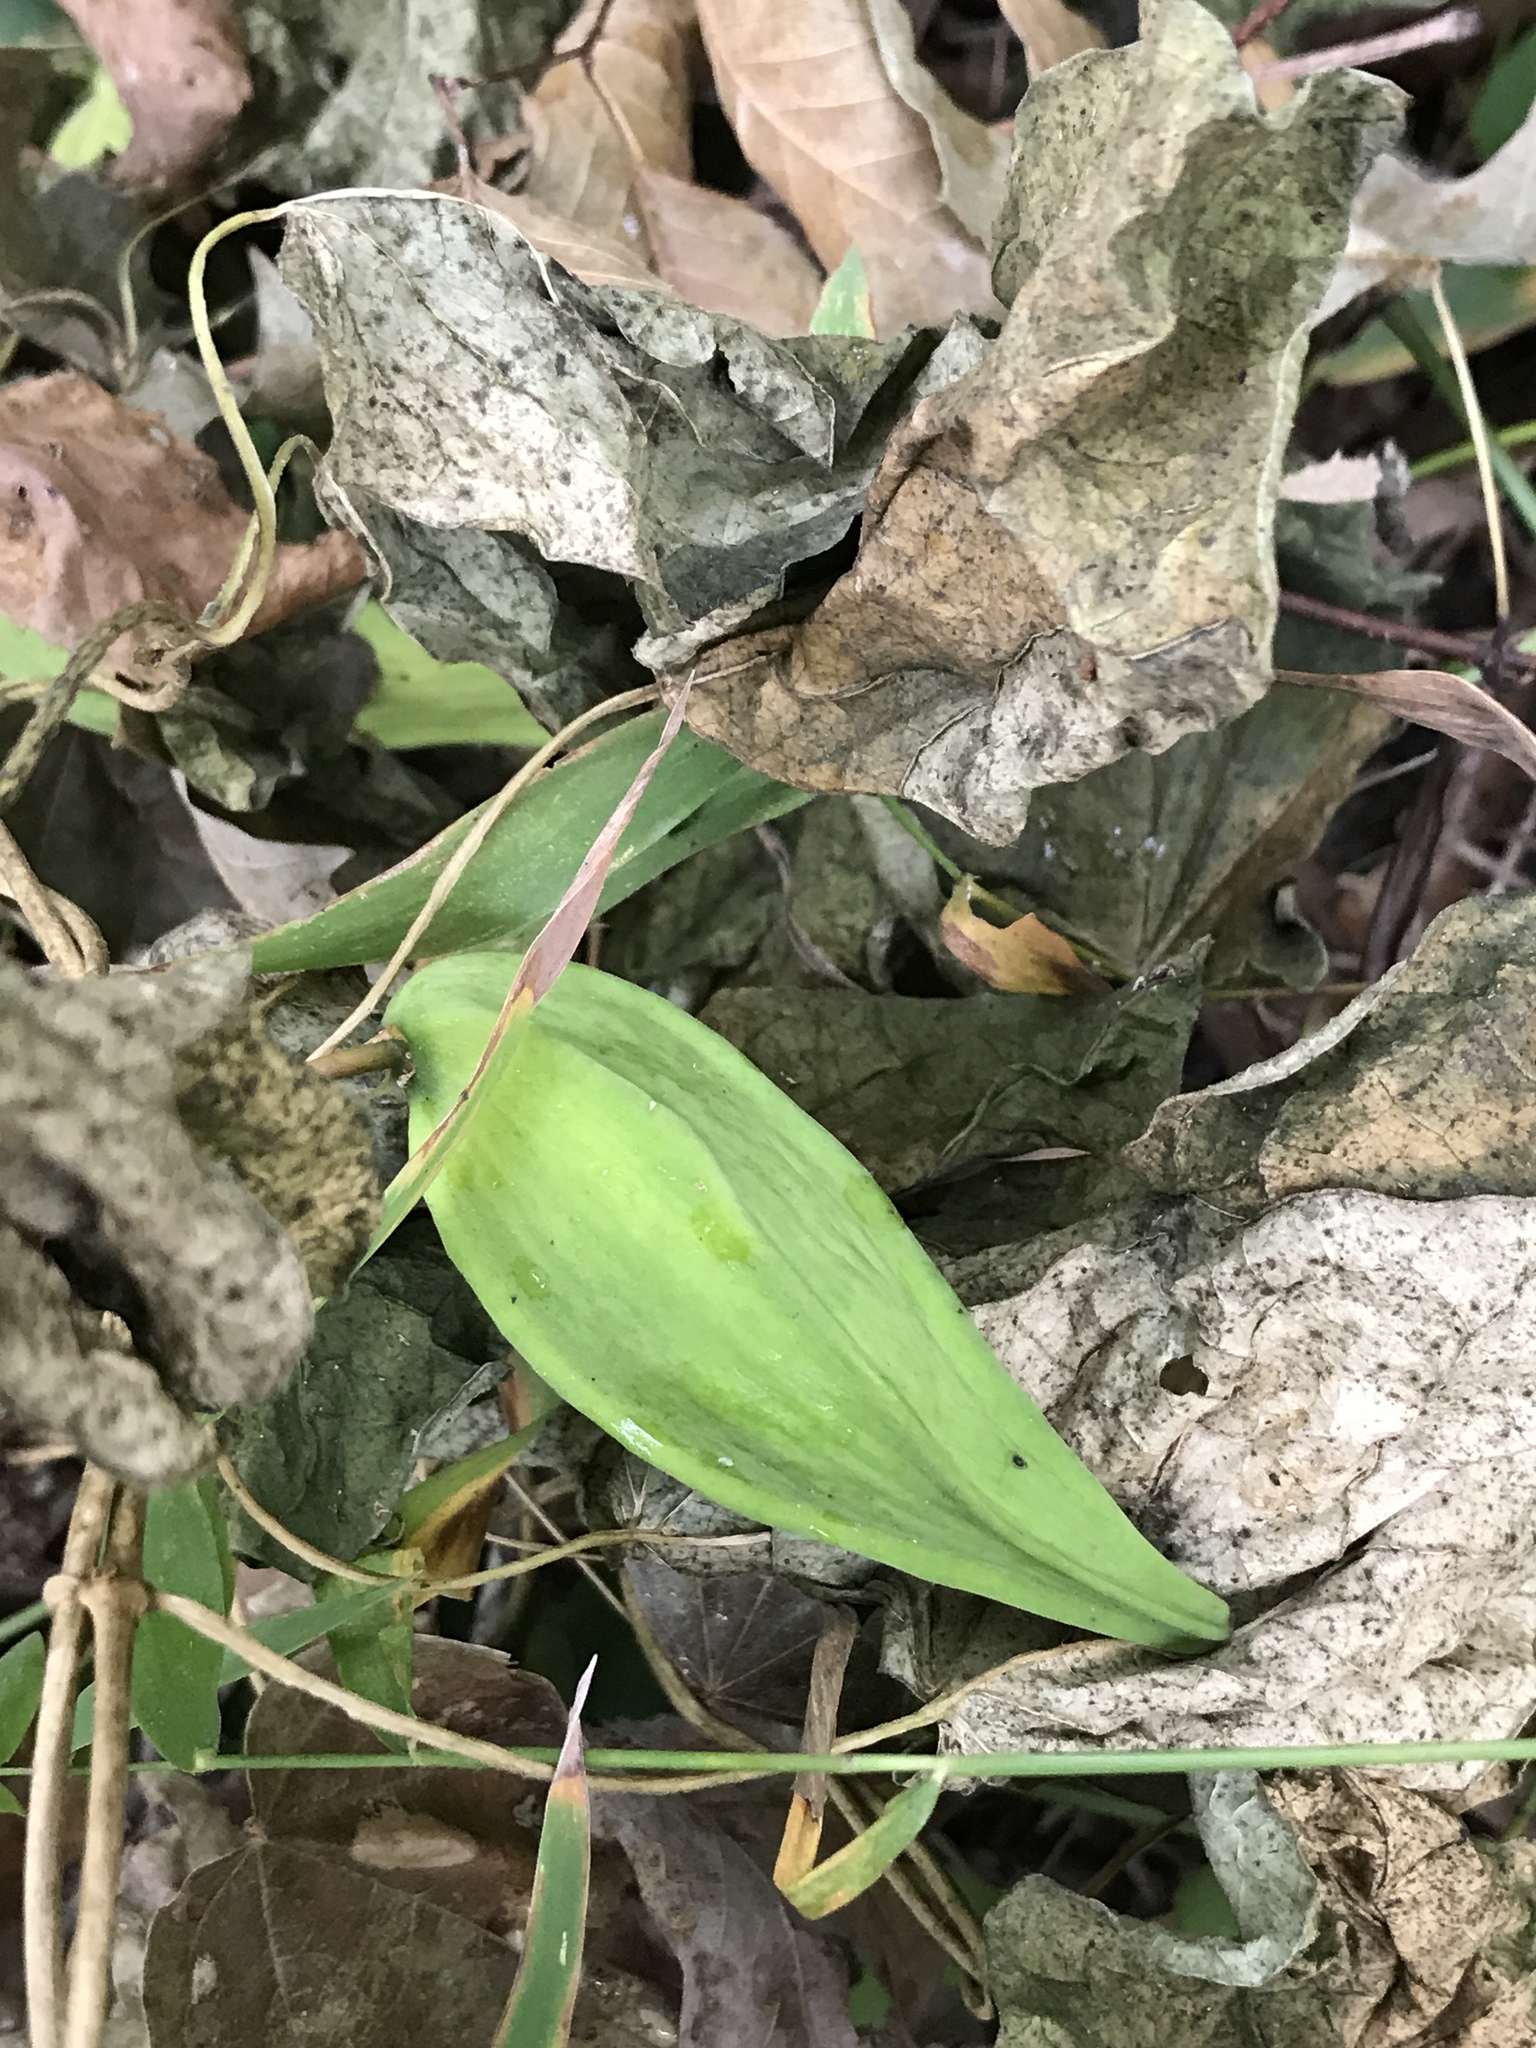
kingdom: Plantae
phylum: Tracheophyta
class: Magnoliopsida
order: Gentianales
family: Apocynaceae
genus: Gonolobus
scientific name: Gonolobus suberosus
